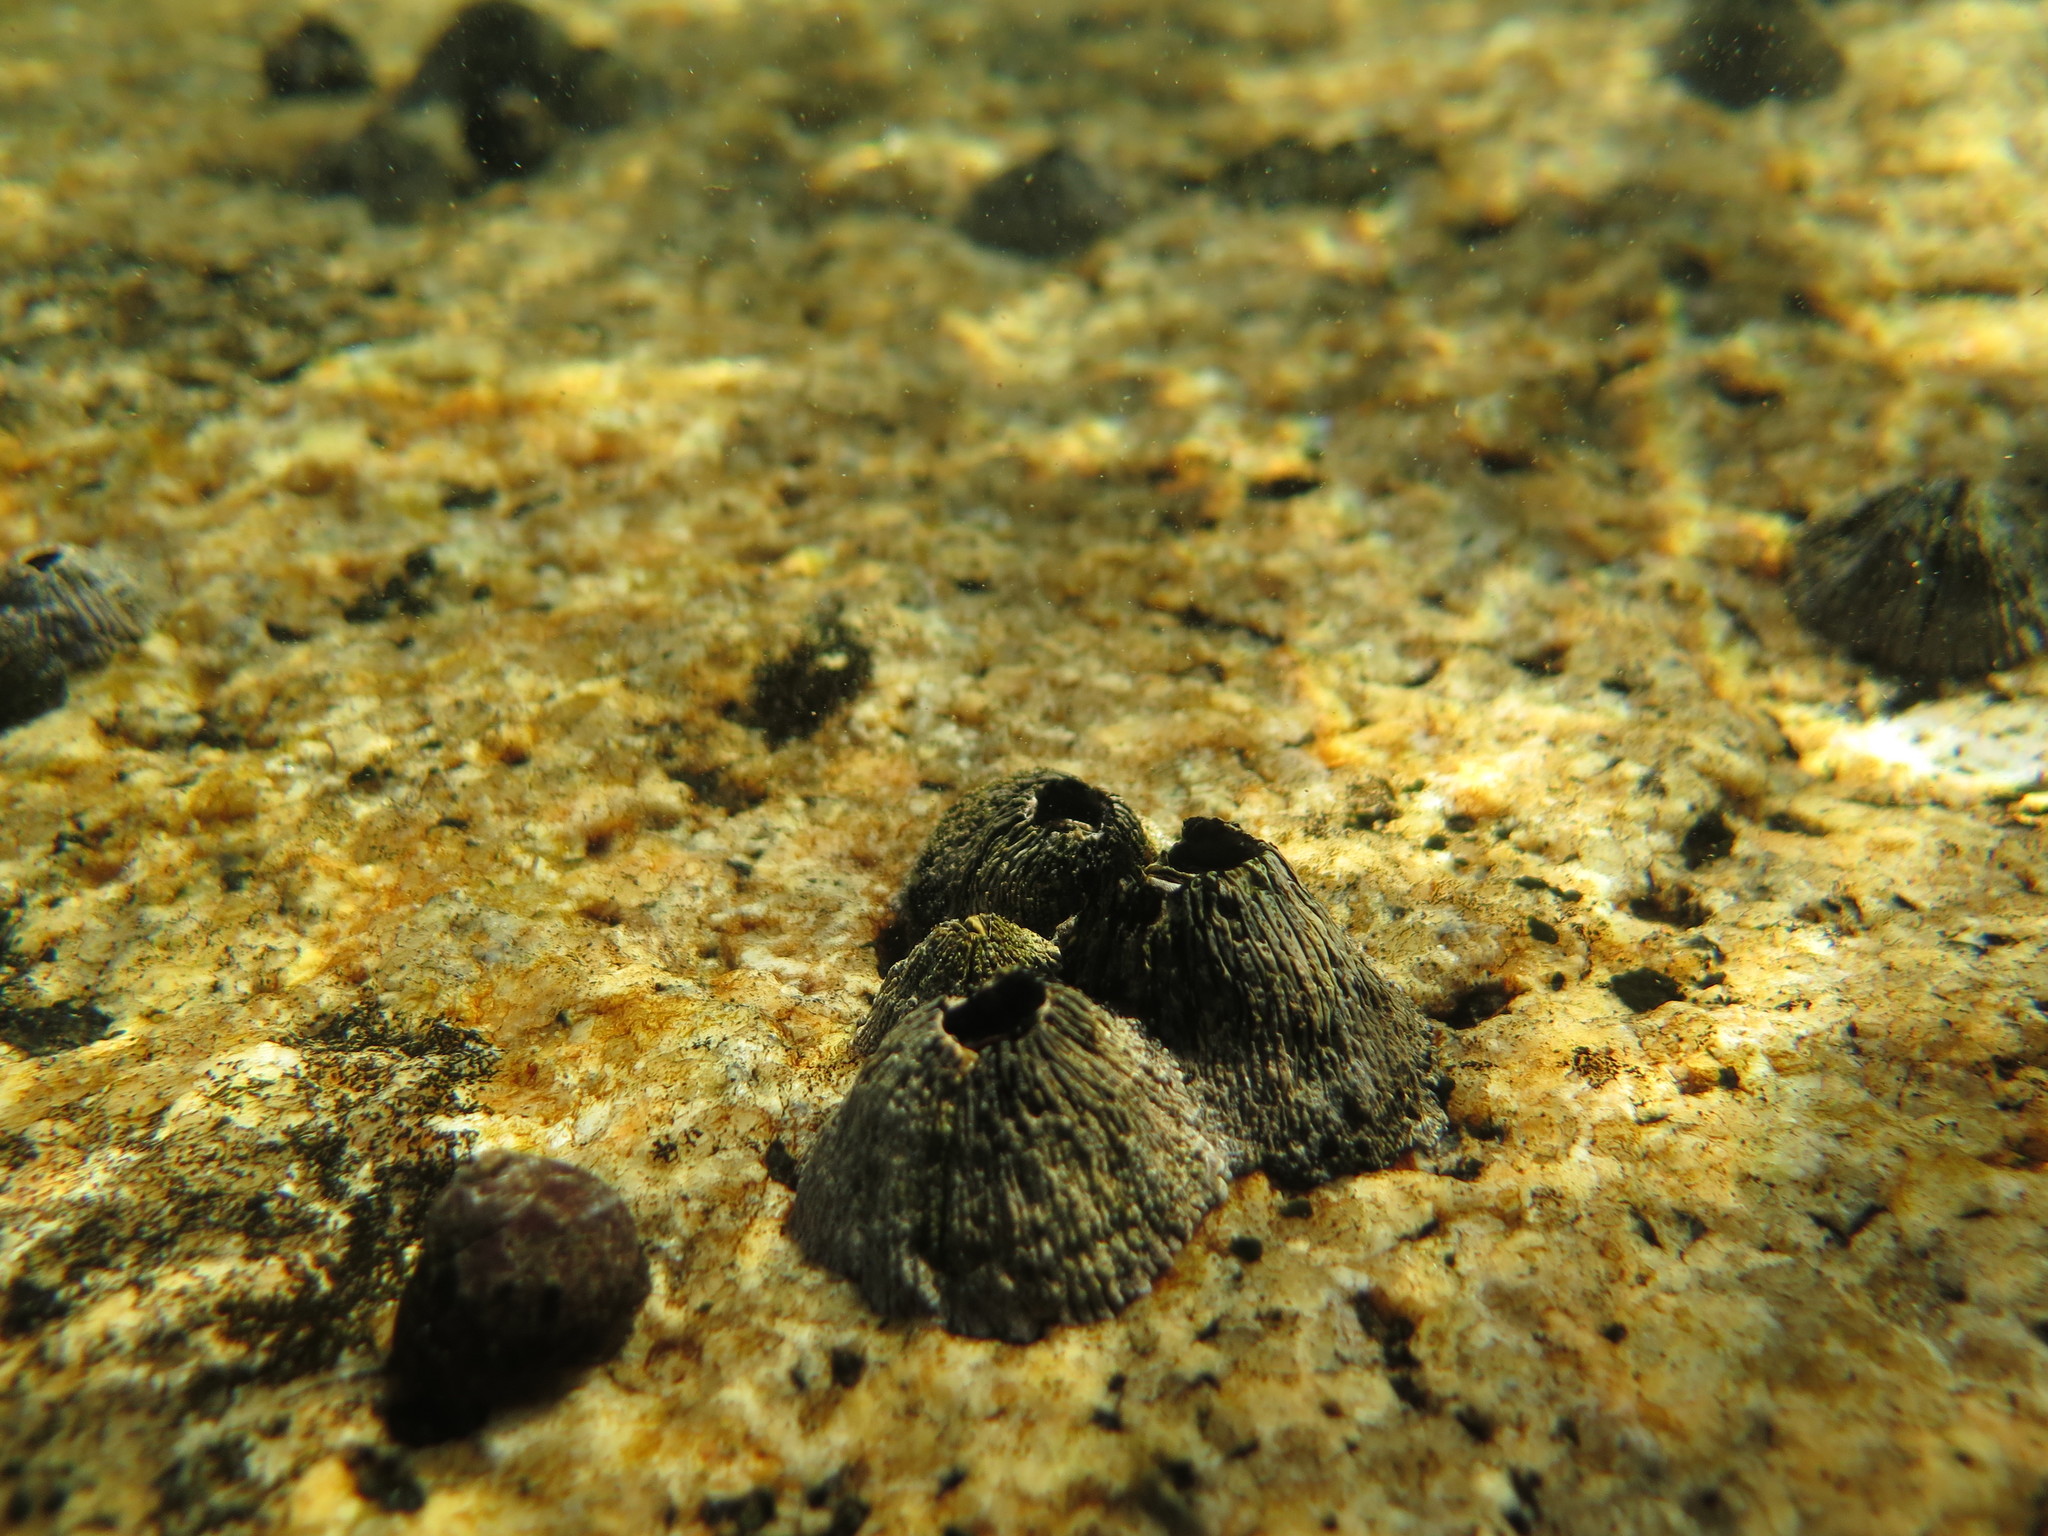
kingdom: Animalia
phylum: Arthropoda
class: Maxillopoda
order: Sessilia
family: Tetraclitidae
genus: Tetraclita
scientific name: Tetraclita serrata
